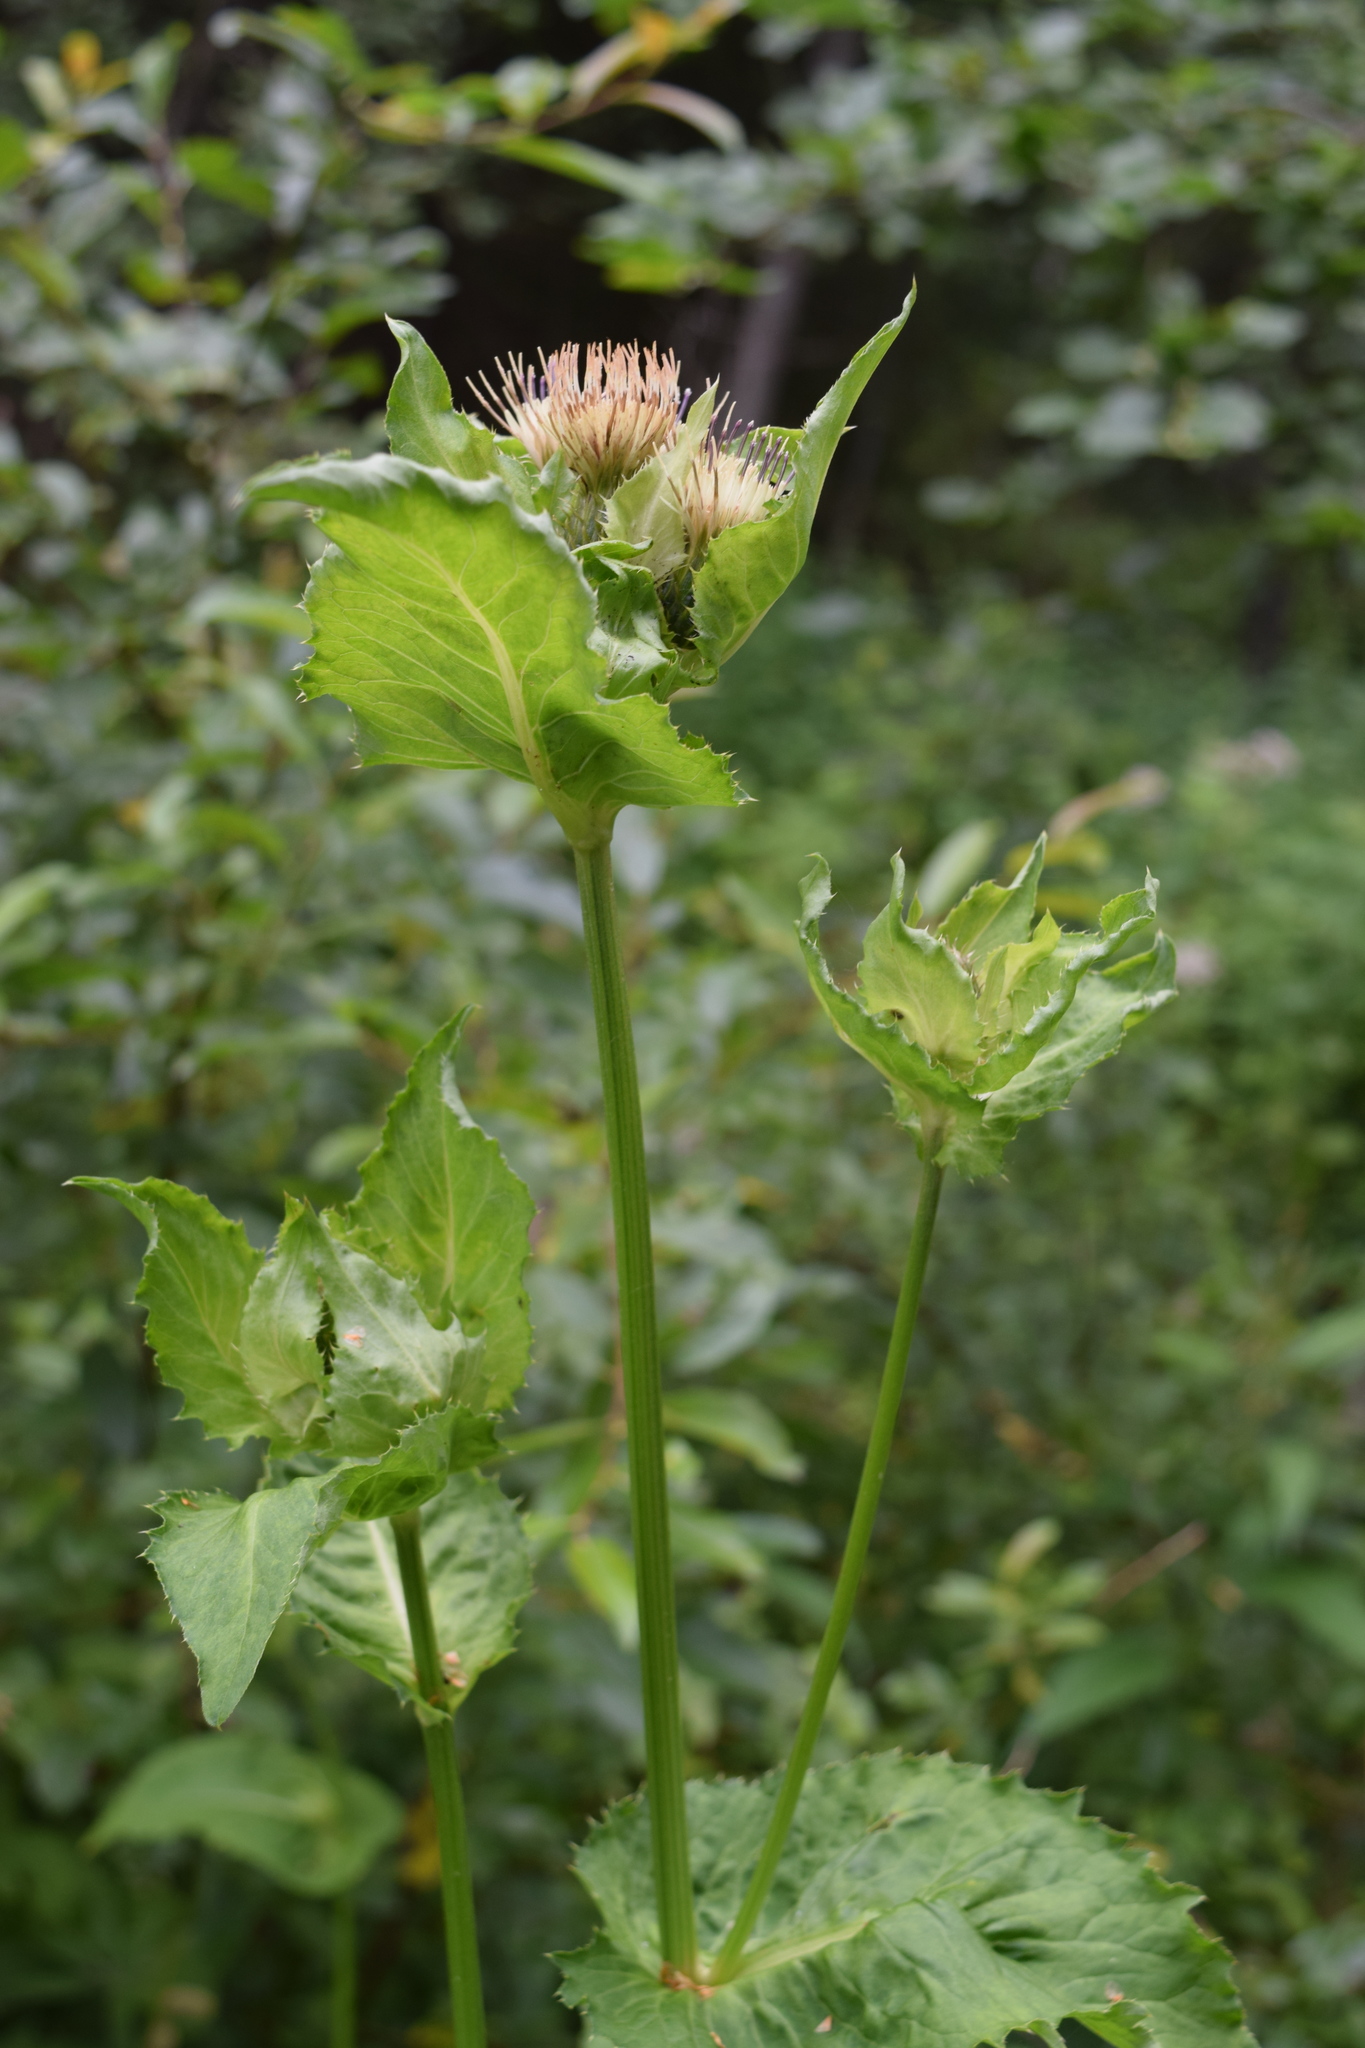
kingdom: Plantae
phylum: Tracheophyta
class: Magnoliopsida
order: Asterales
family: Asteraceae
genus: Cirsium
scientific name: Cirsium oleraceum
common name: Cabbage thistle
